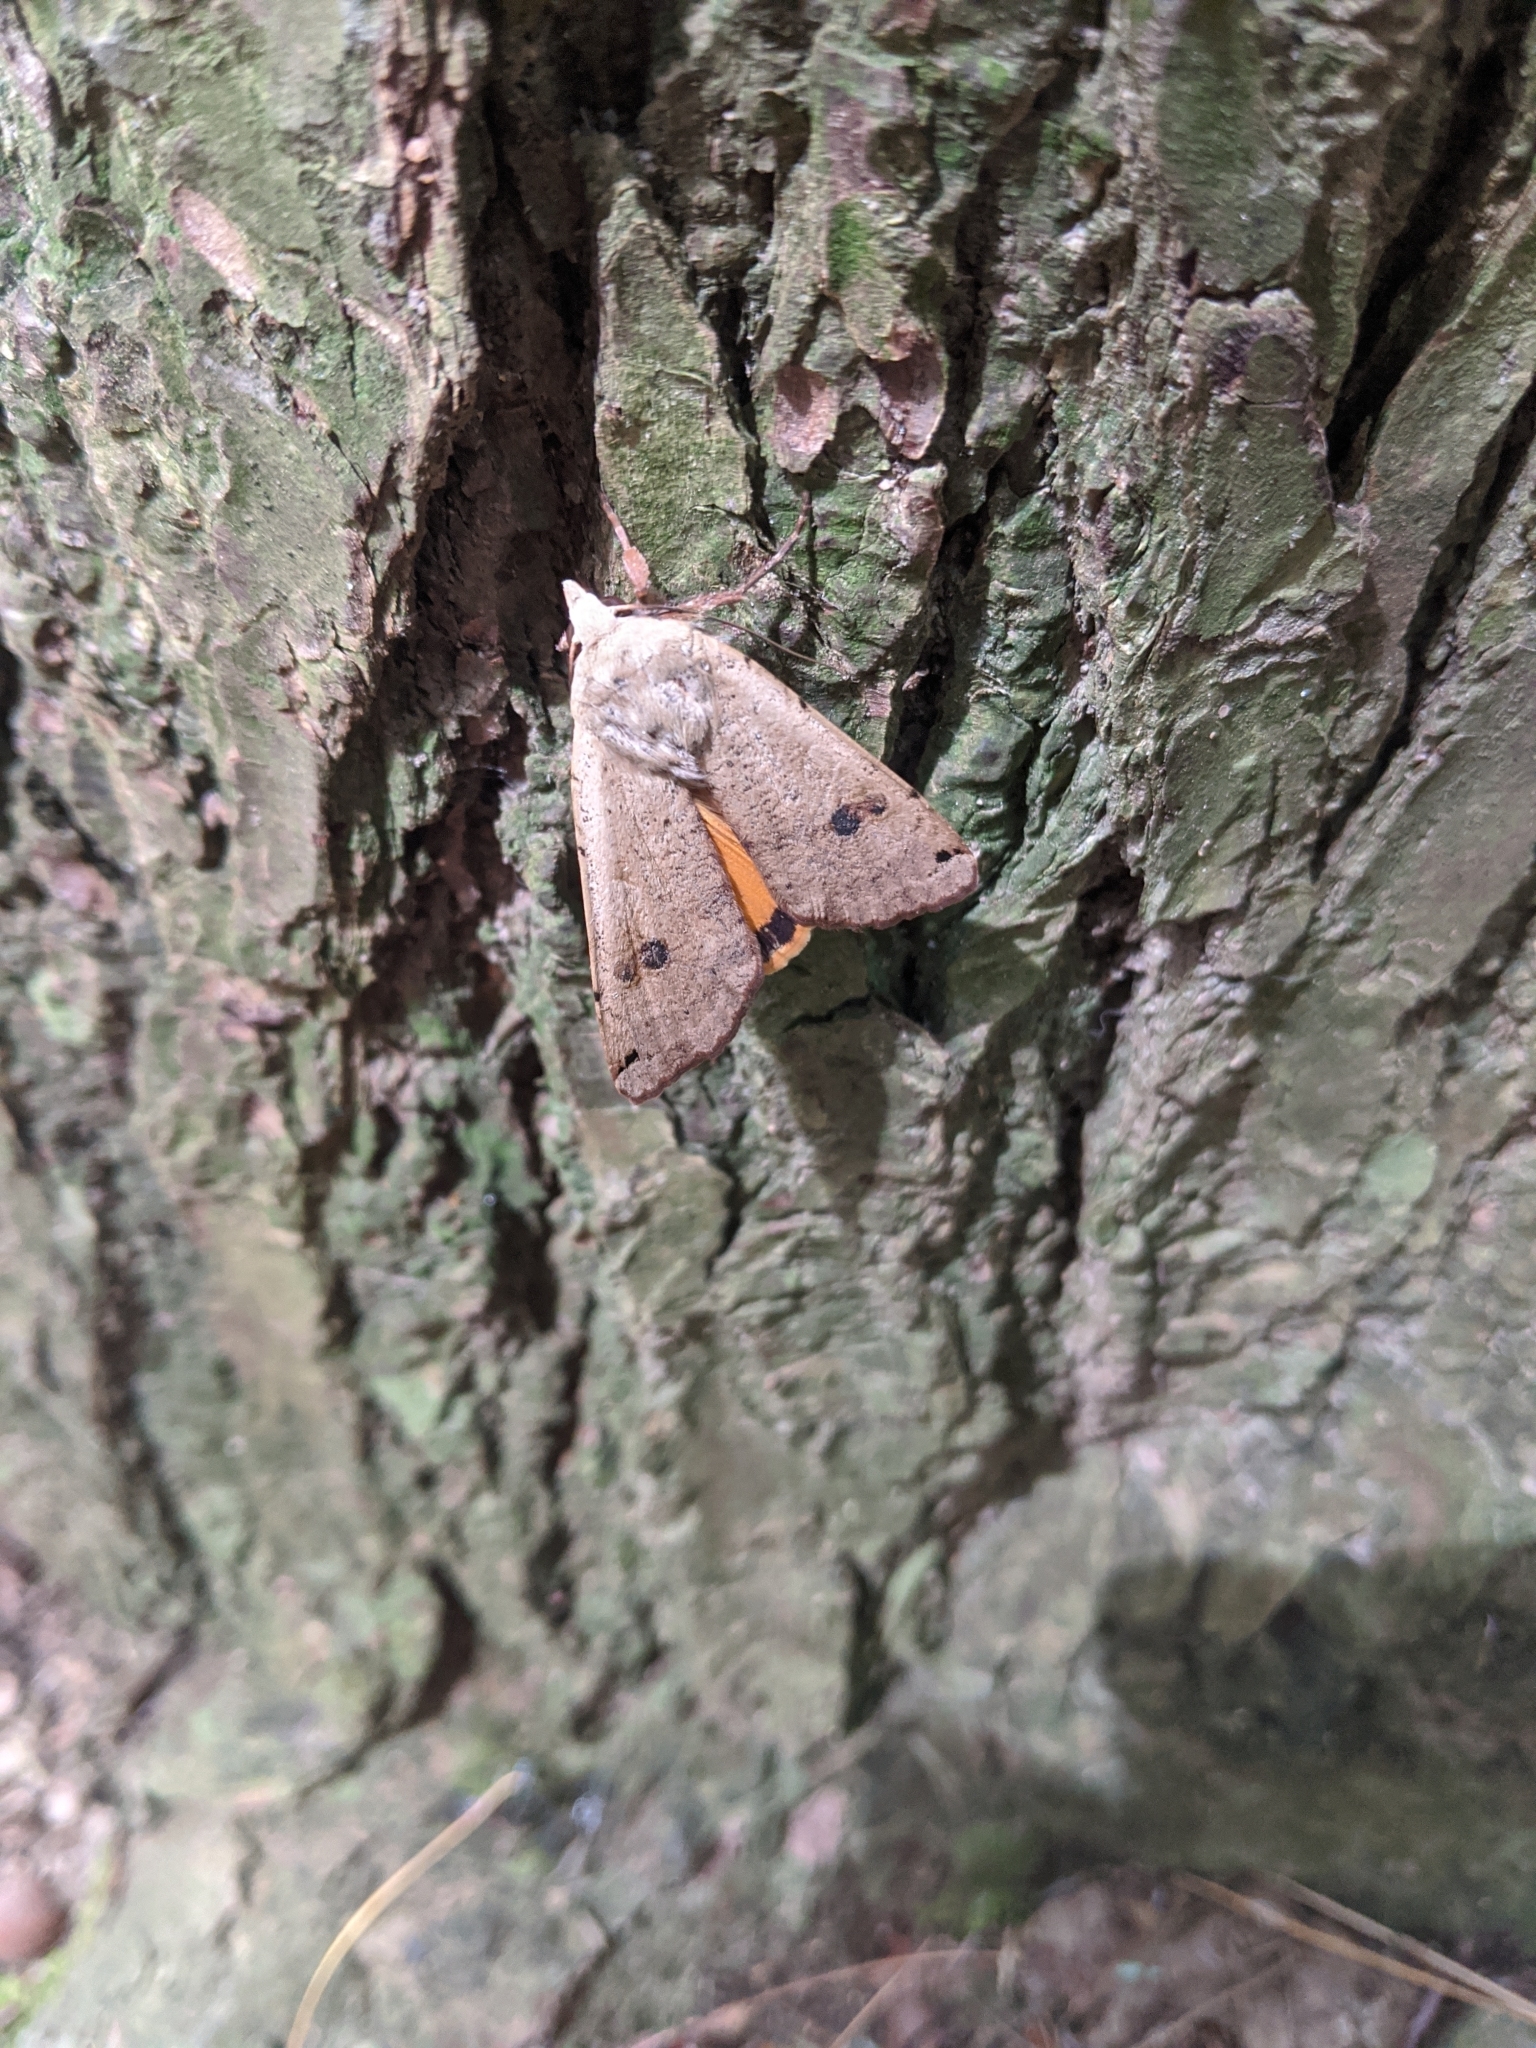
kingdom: Animalia
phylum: Arthropoda
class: Insecta
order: Lepidoptera
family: Noctuidae
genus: Noctua
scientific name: Noctua pronuba
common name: Large yellow underwing
